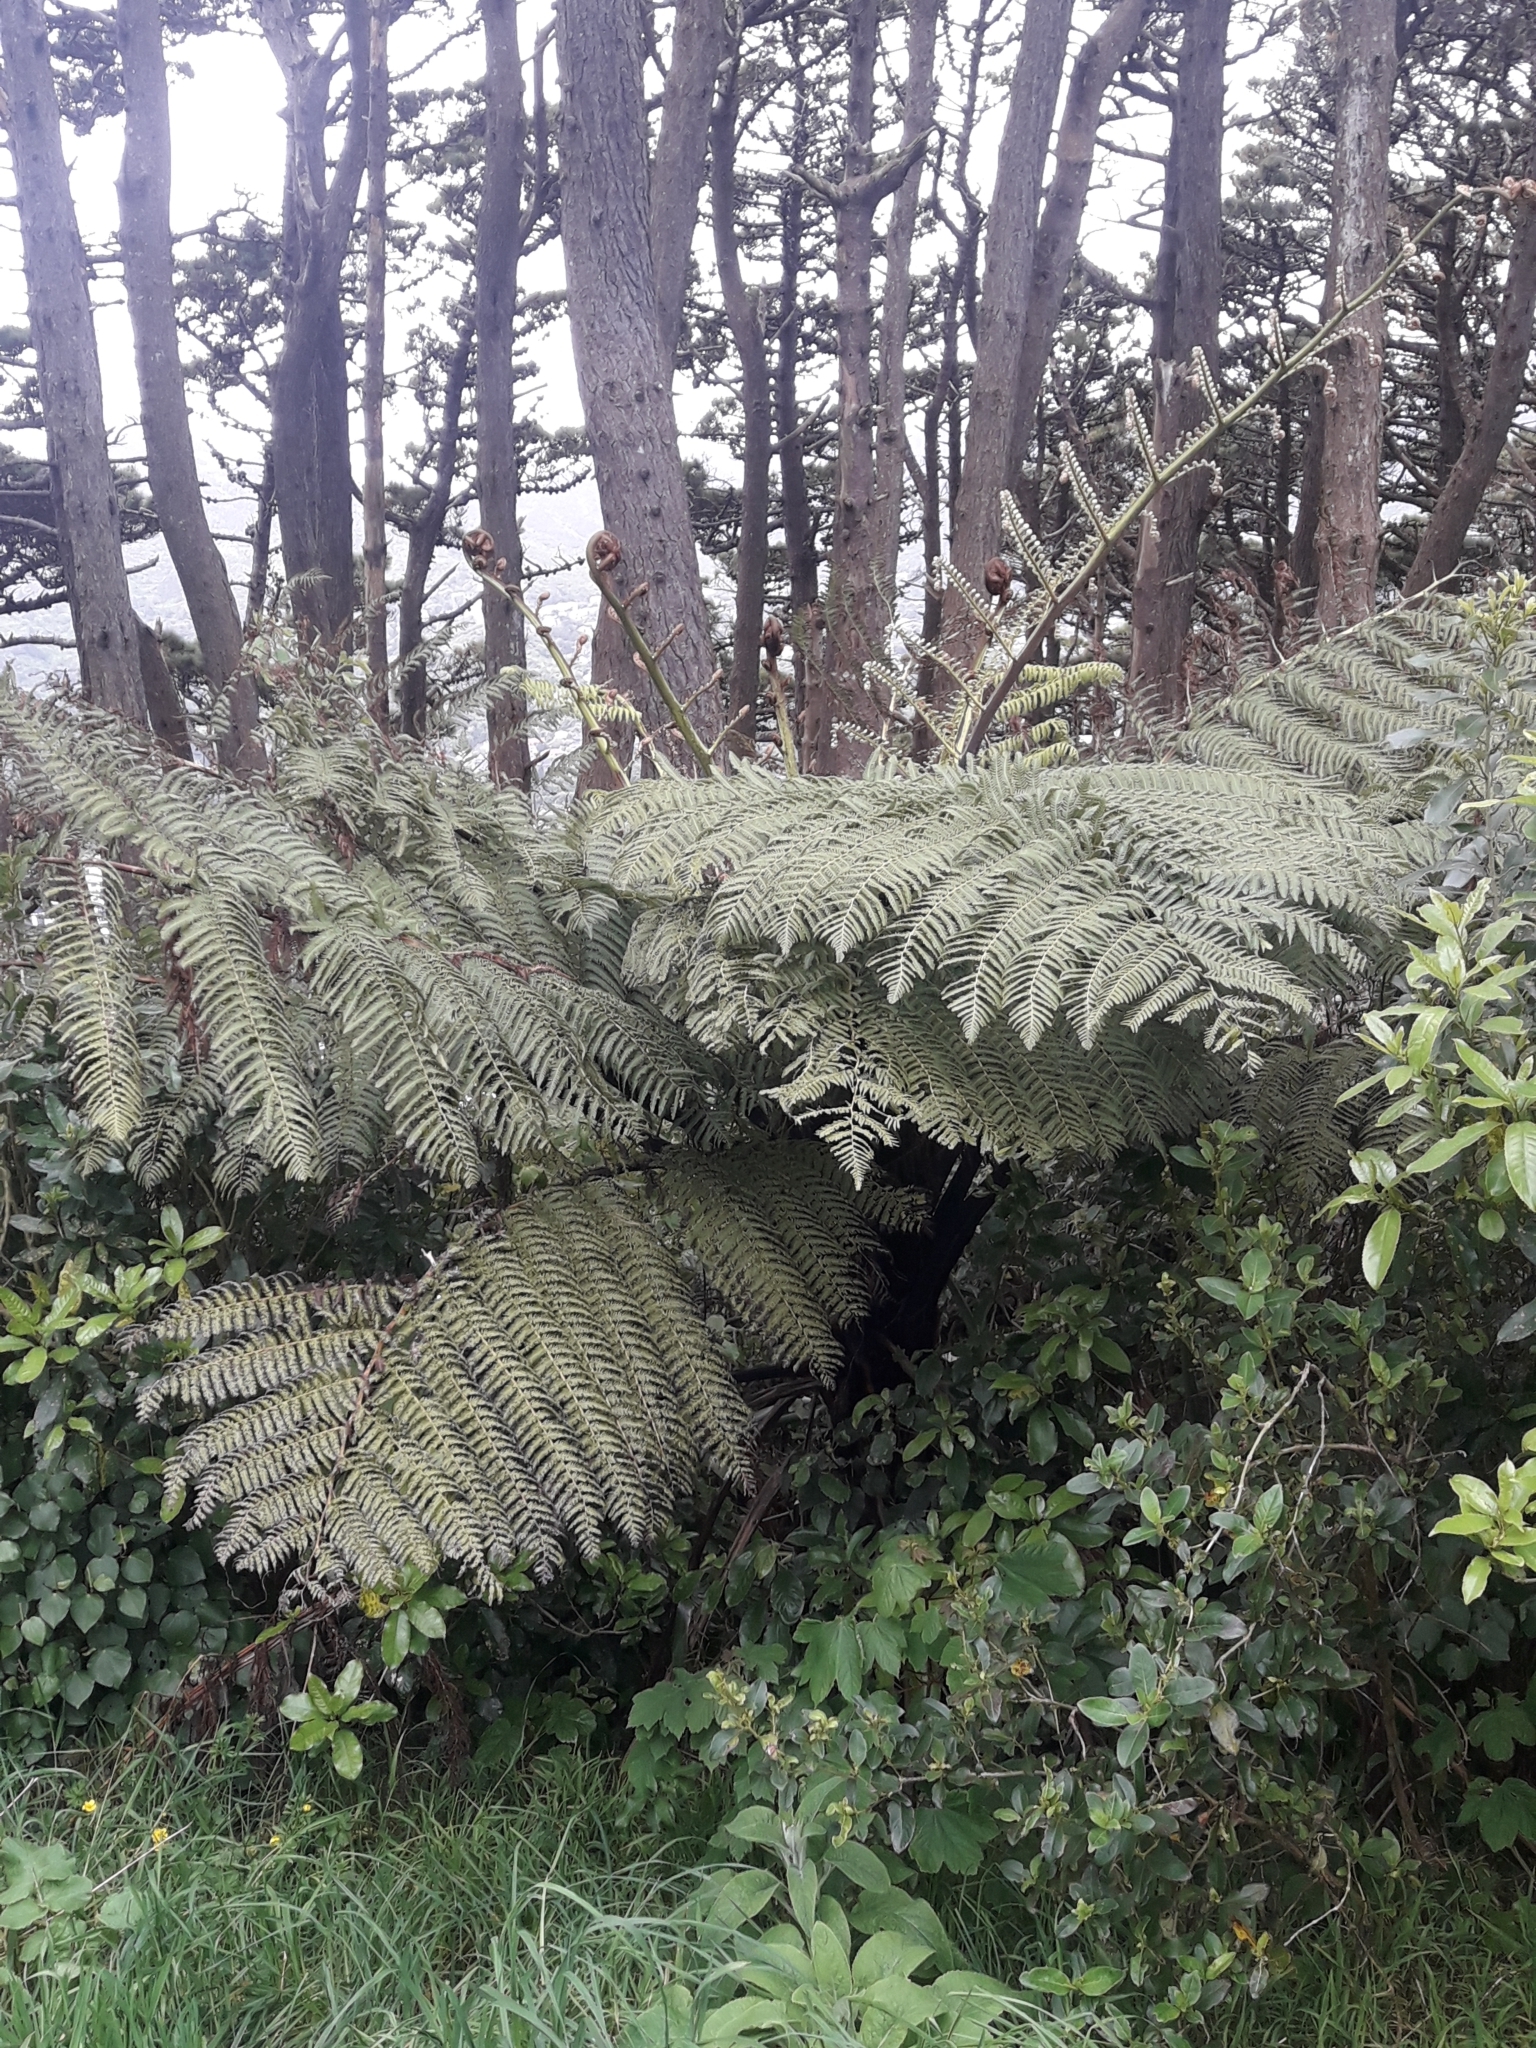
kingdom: Plantae
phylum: Tracheophyta
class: Polypodiopsida
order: Cyatheales
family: Cyatheaceae
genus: Sphaeropteris
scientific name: Sphaeropteris medullaris
